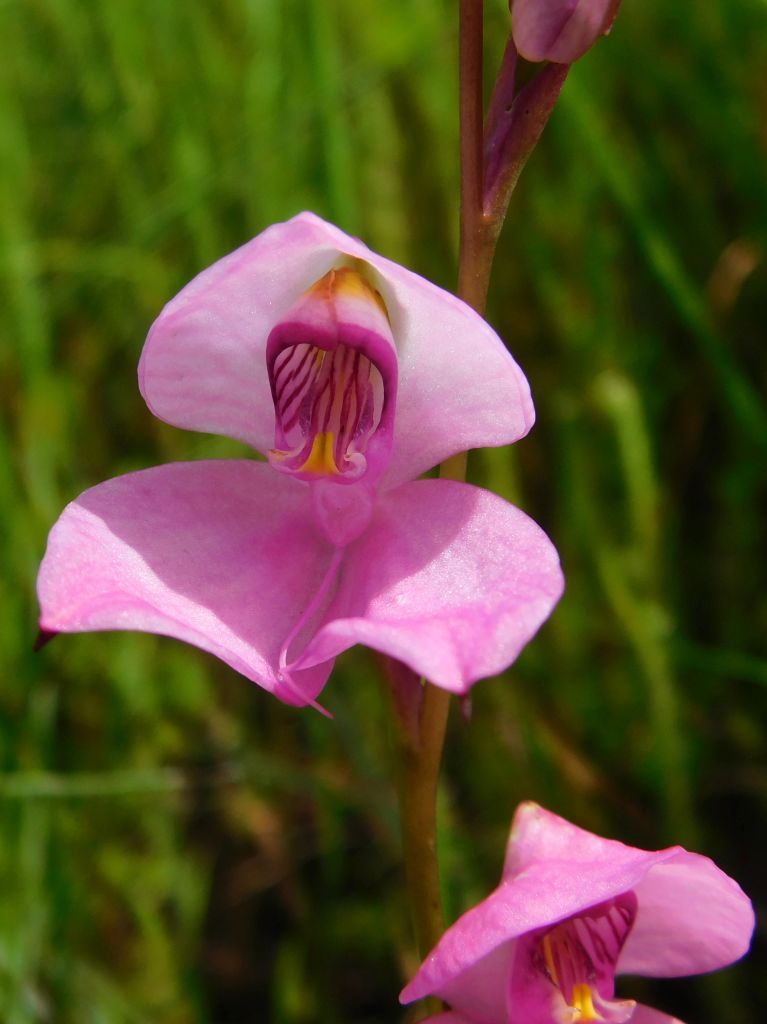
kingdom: Plantae
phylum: Tracheophyta
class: Liliopsida
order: Asparagales
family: Orchidaceae
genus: Disa
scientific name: Disa racemosa
